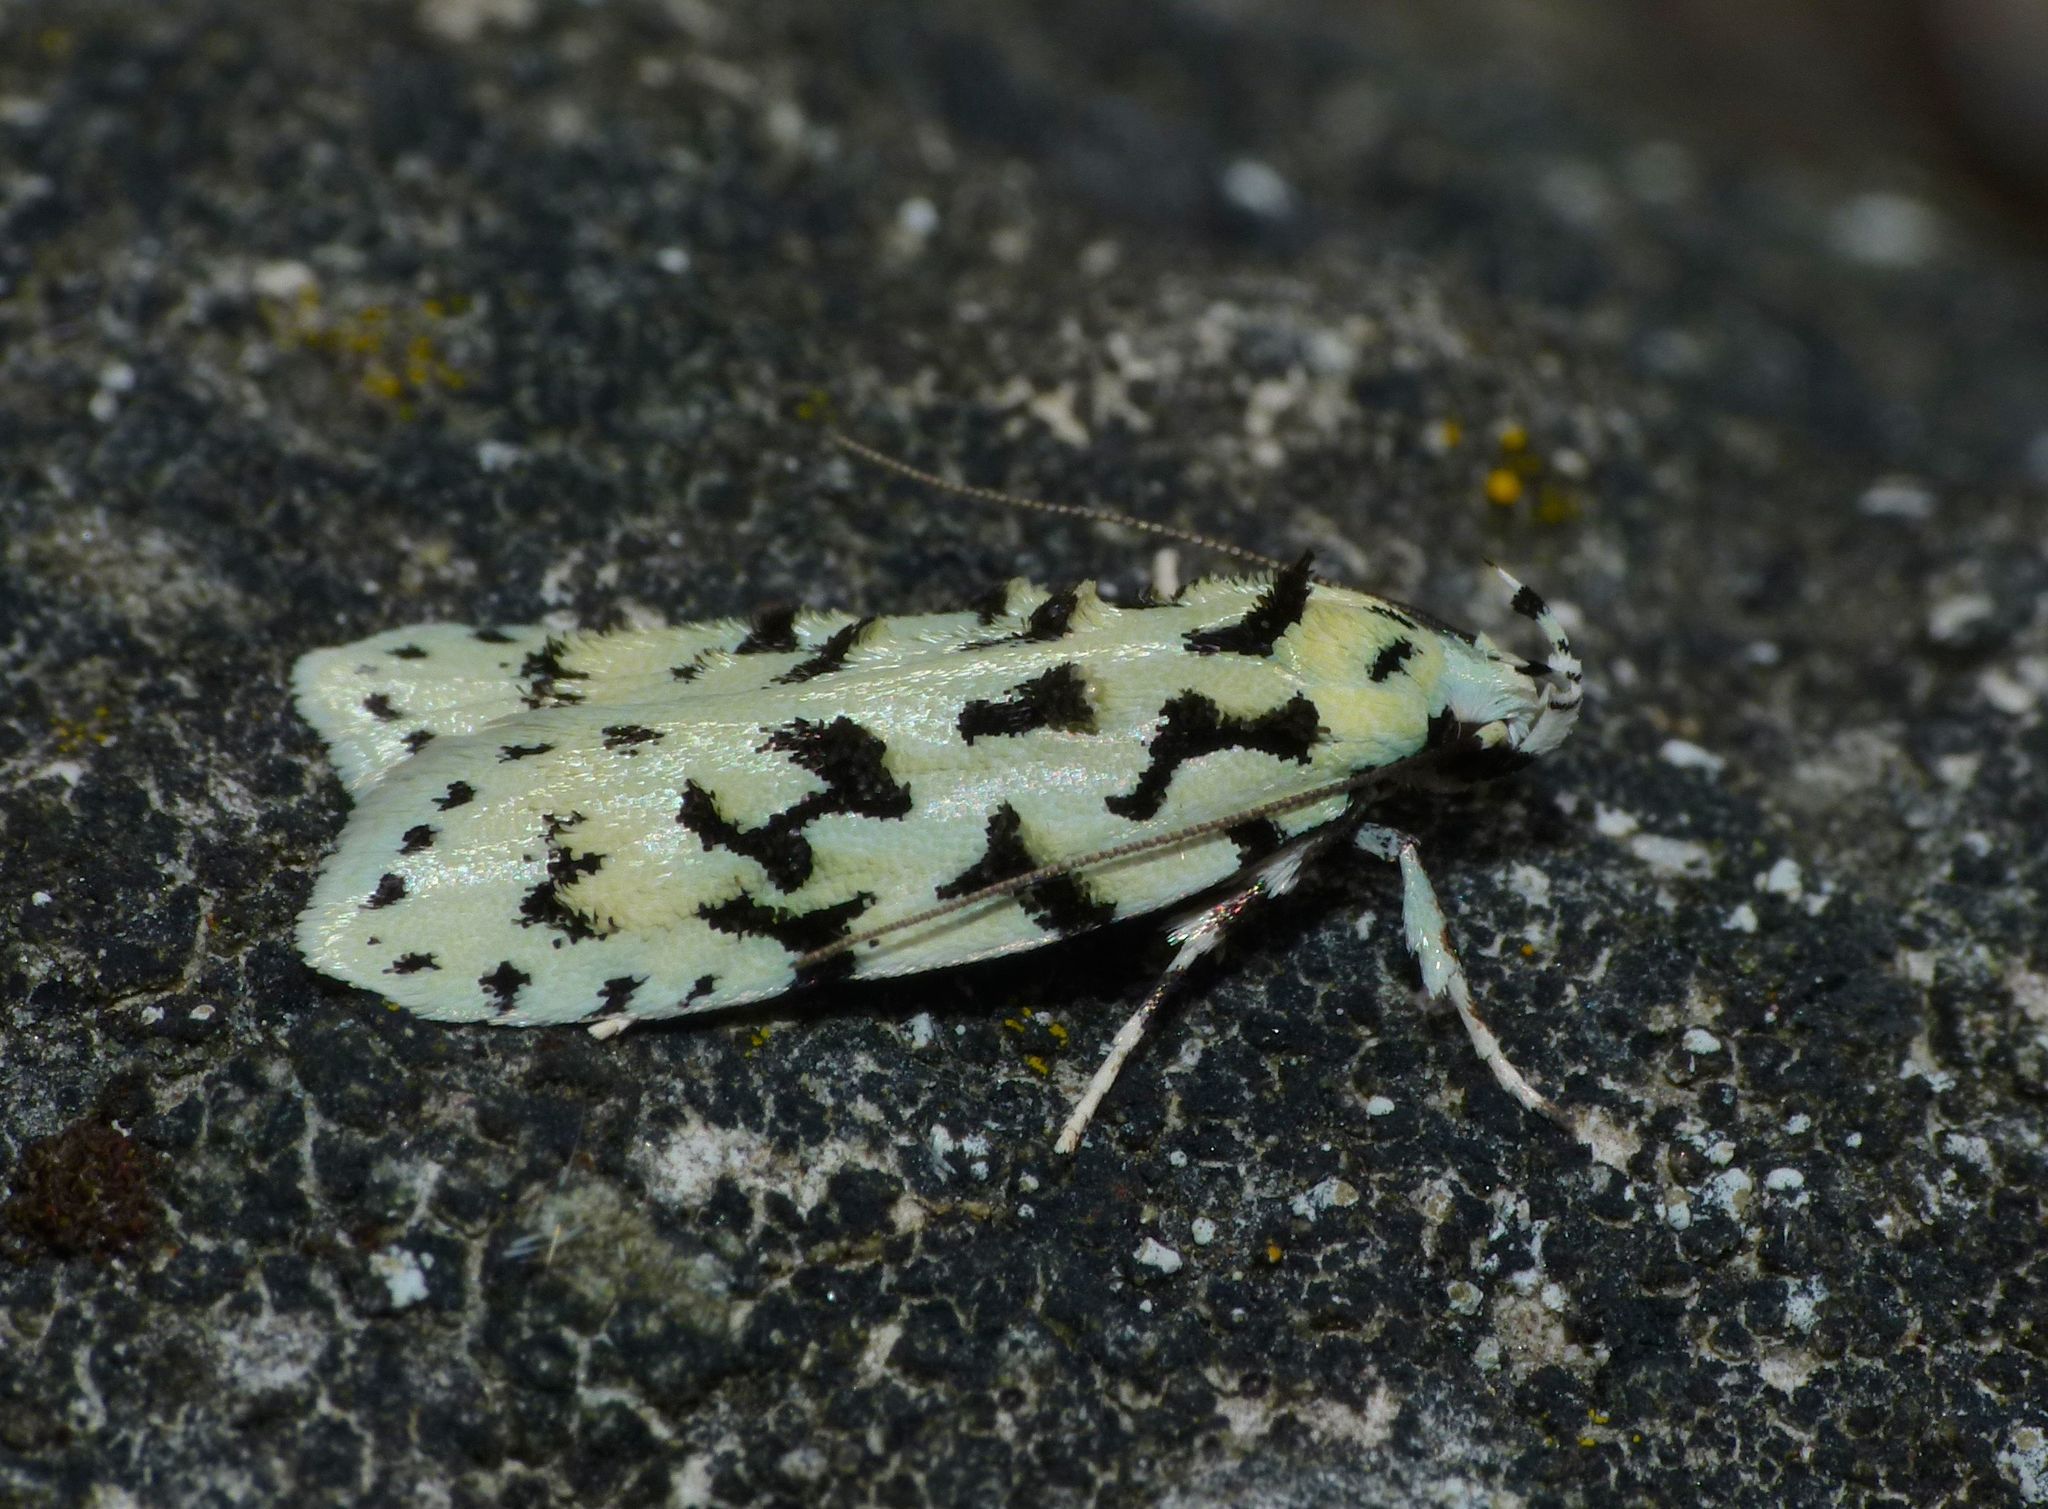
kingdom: Animalia
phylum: Arthropoda
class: Insecta
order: Lepidoptera
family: Oecophoridae
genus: Izatha
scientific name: Izatha huttoni
